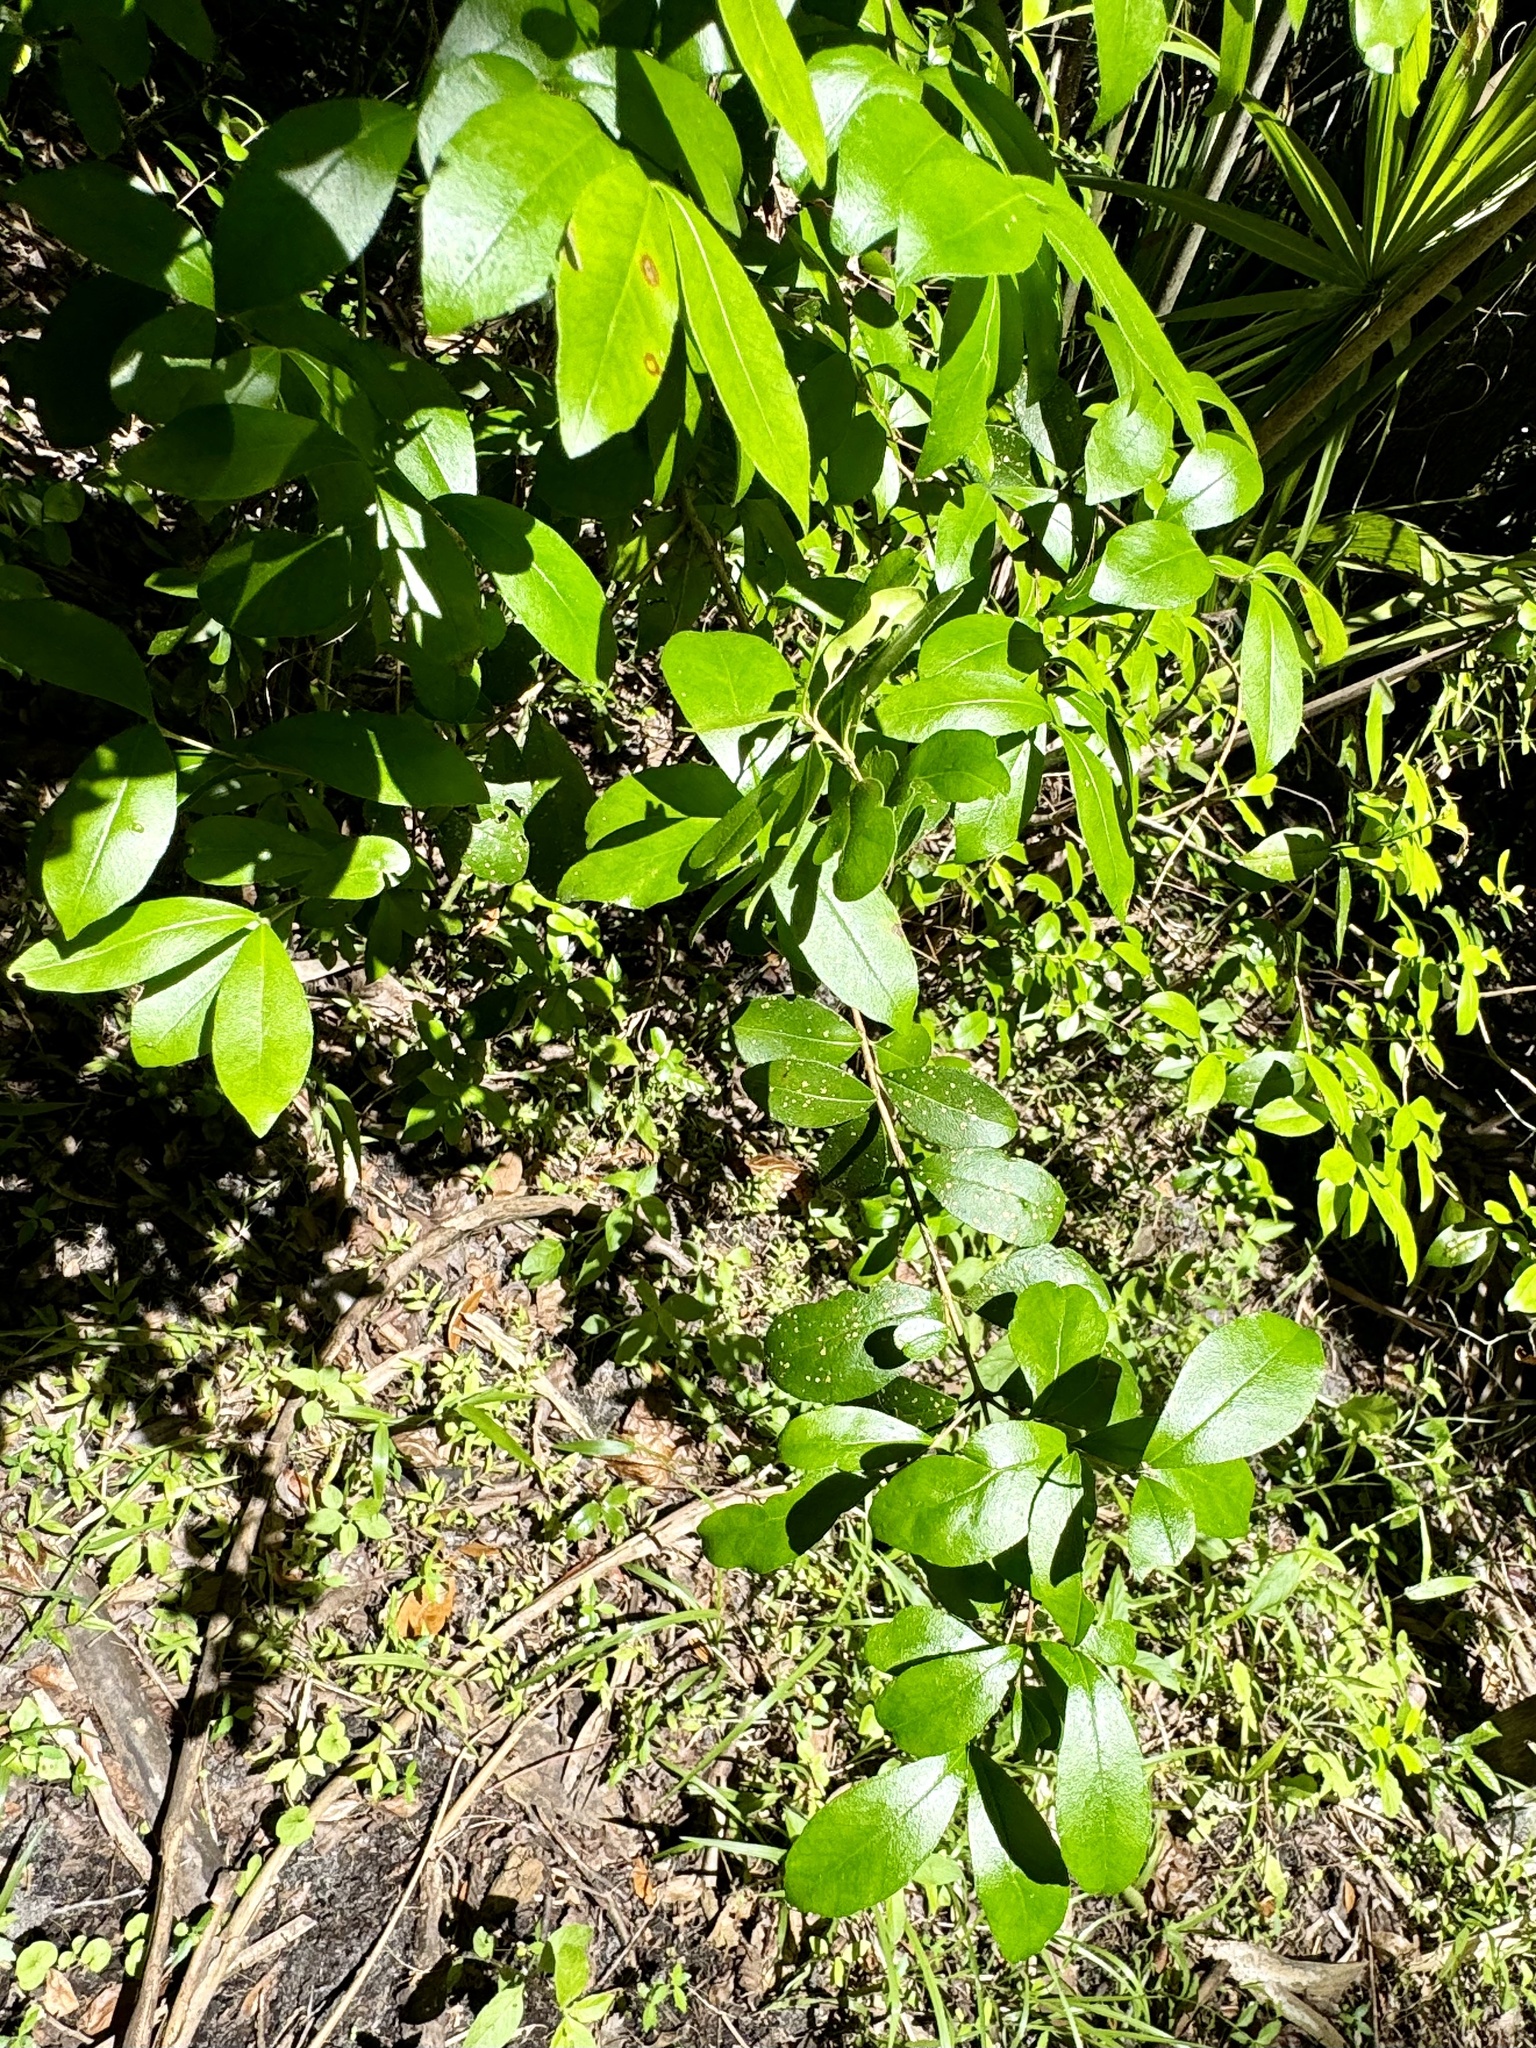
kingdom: Plantae
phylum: Tracheophyta
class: Magnoliopsida
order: Myrtales
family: Myrtaceae
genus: Myrcianthes
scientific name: Myrcianthes fragrans
